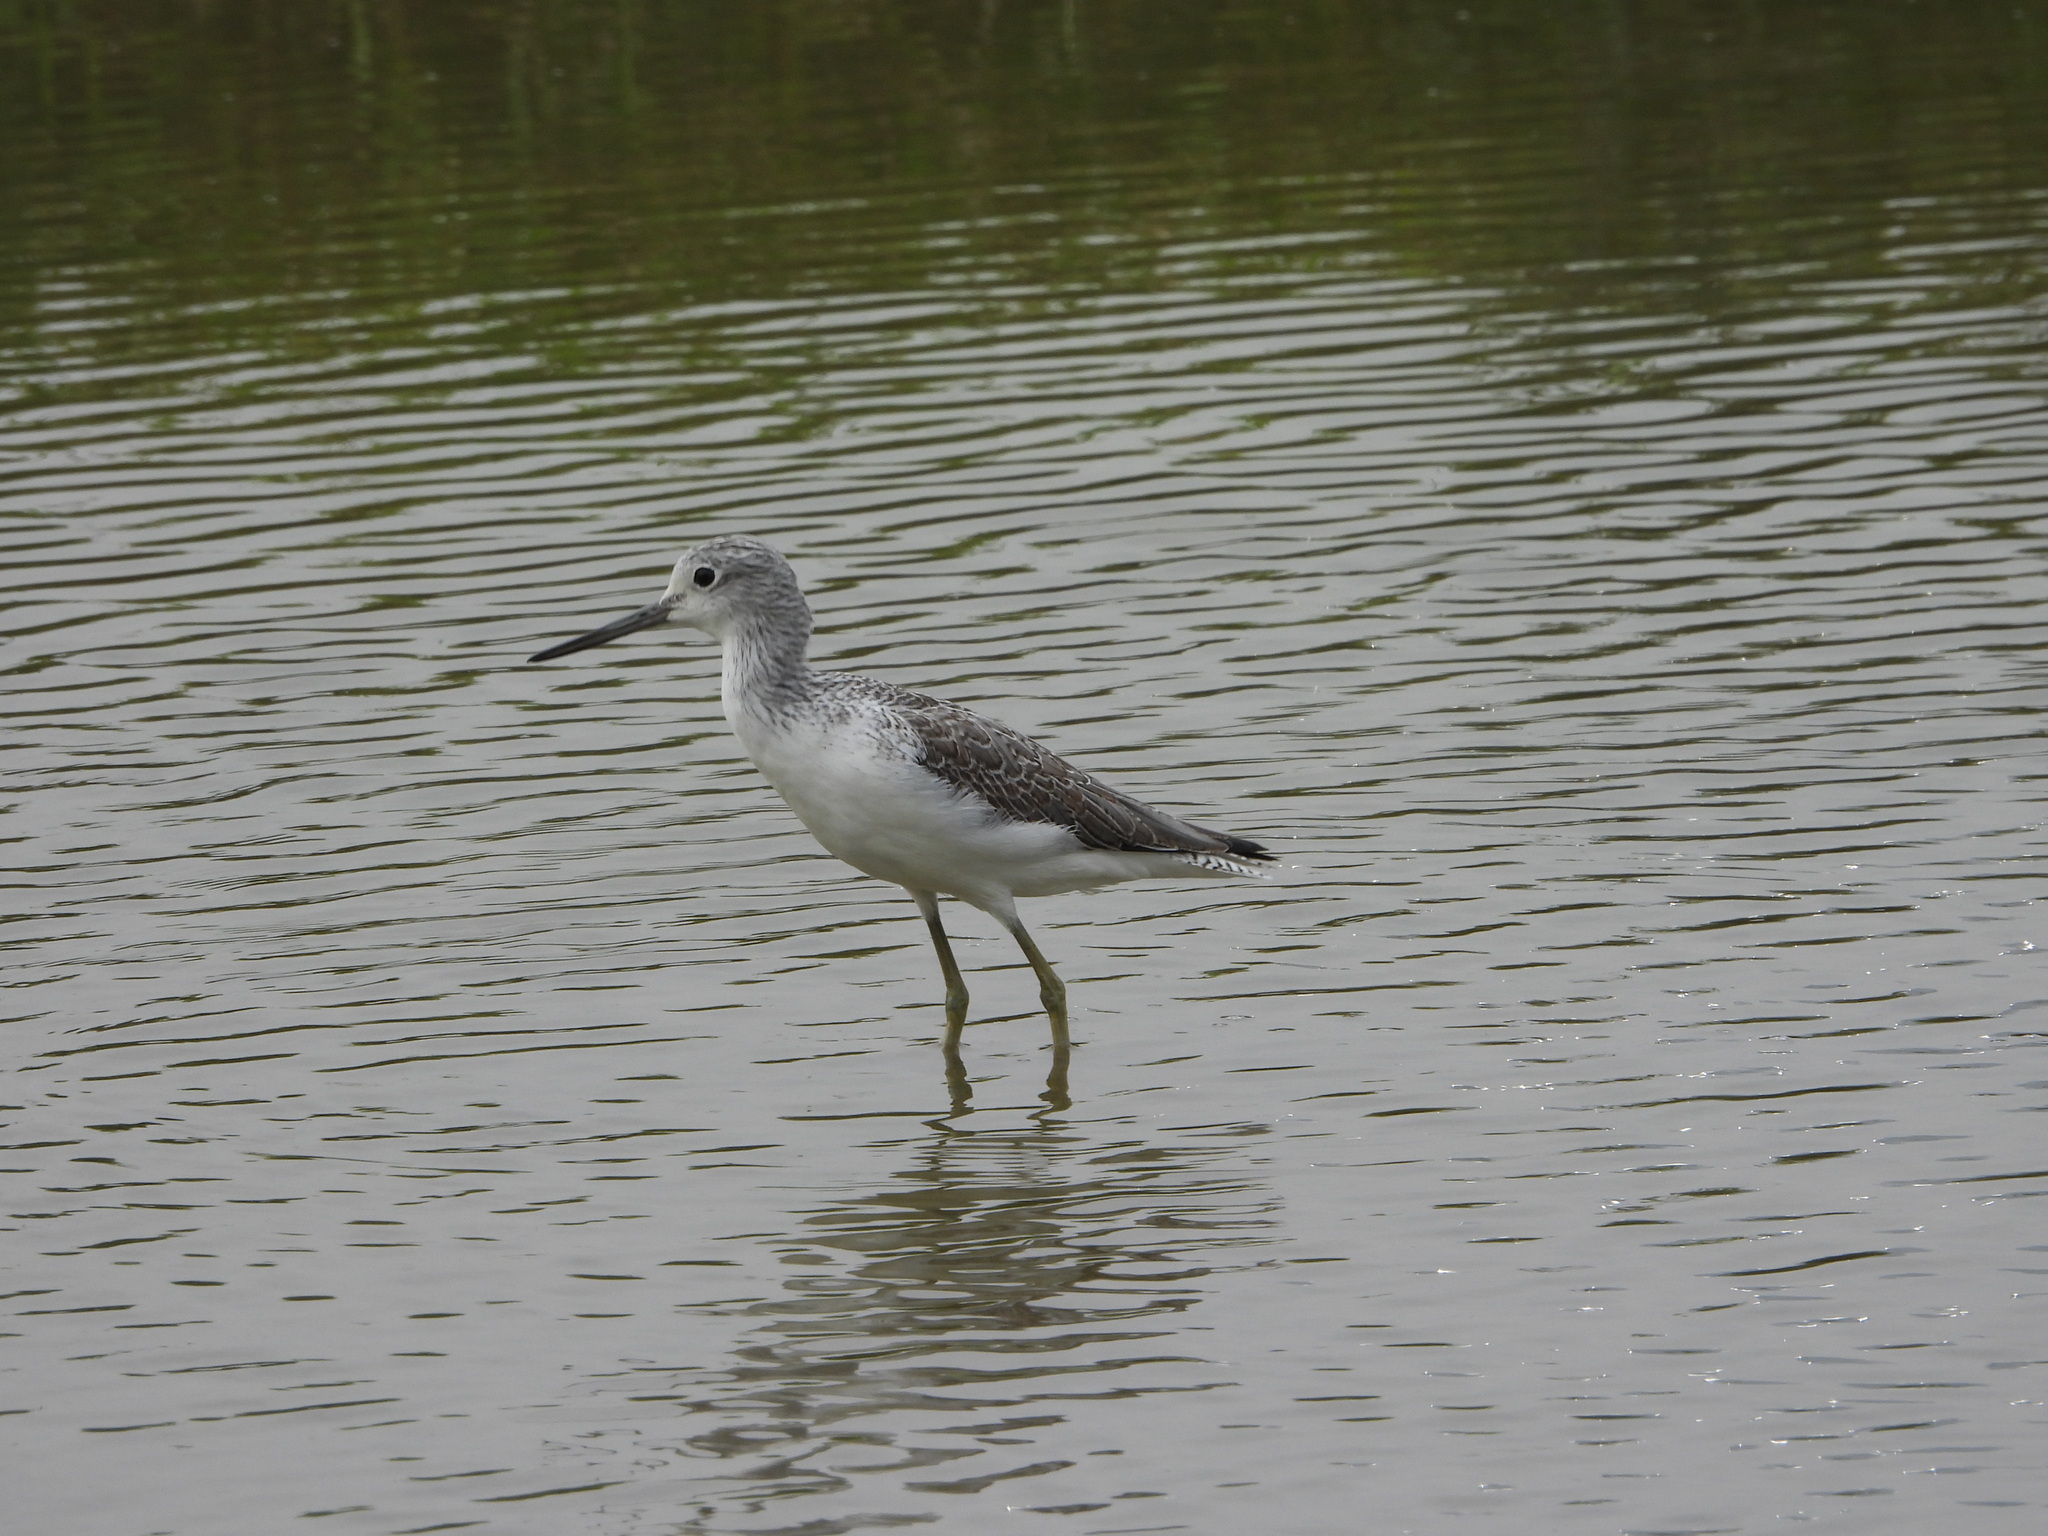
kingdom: Animalia
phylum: Chordata
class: Aves
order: Charadriiformes
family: Scolopacidae
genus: Tringa
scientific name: Tringa nebularia
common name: Common greenshank
